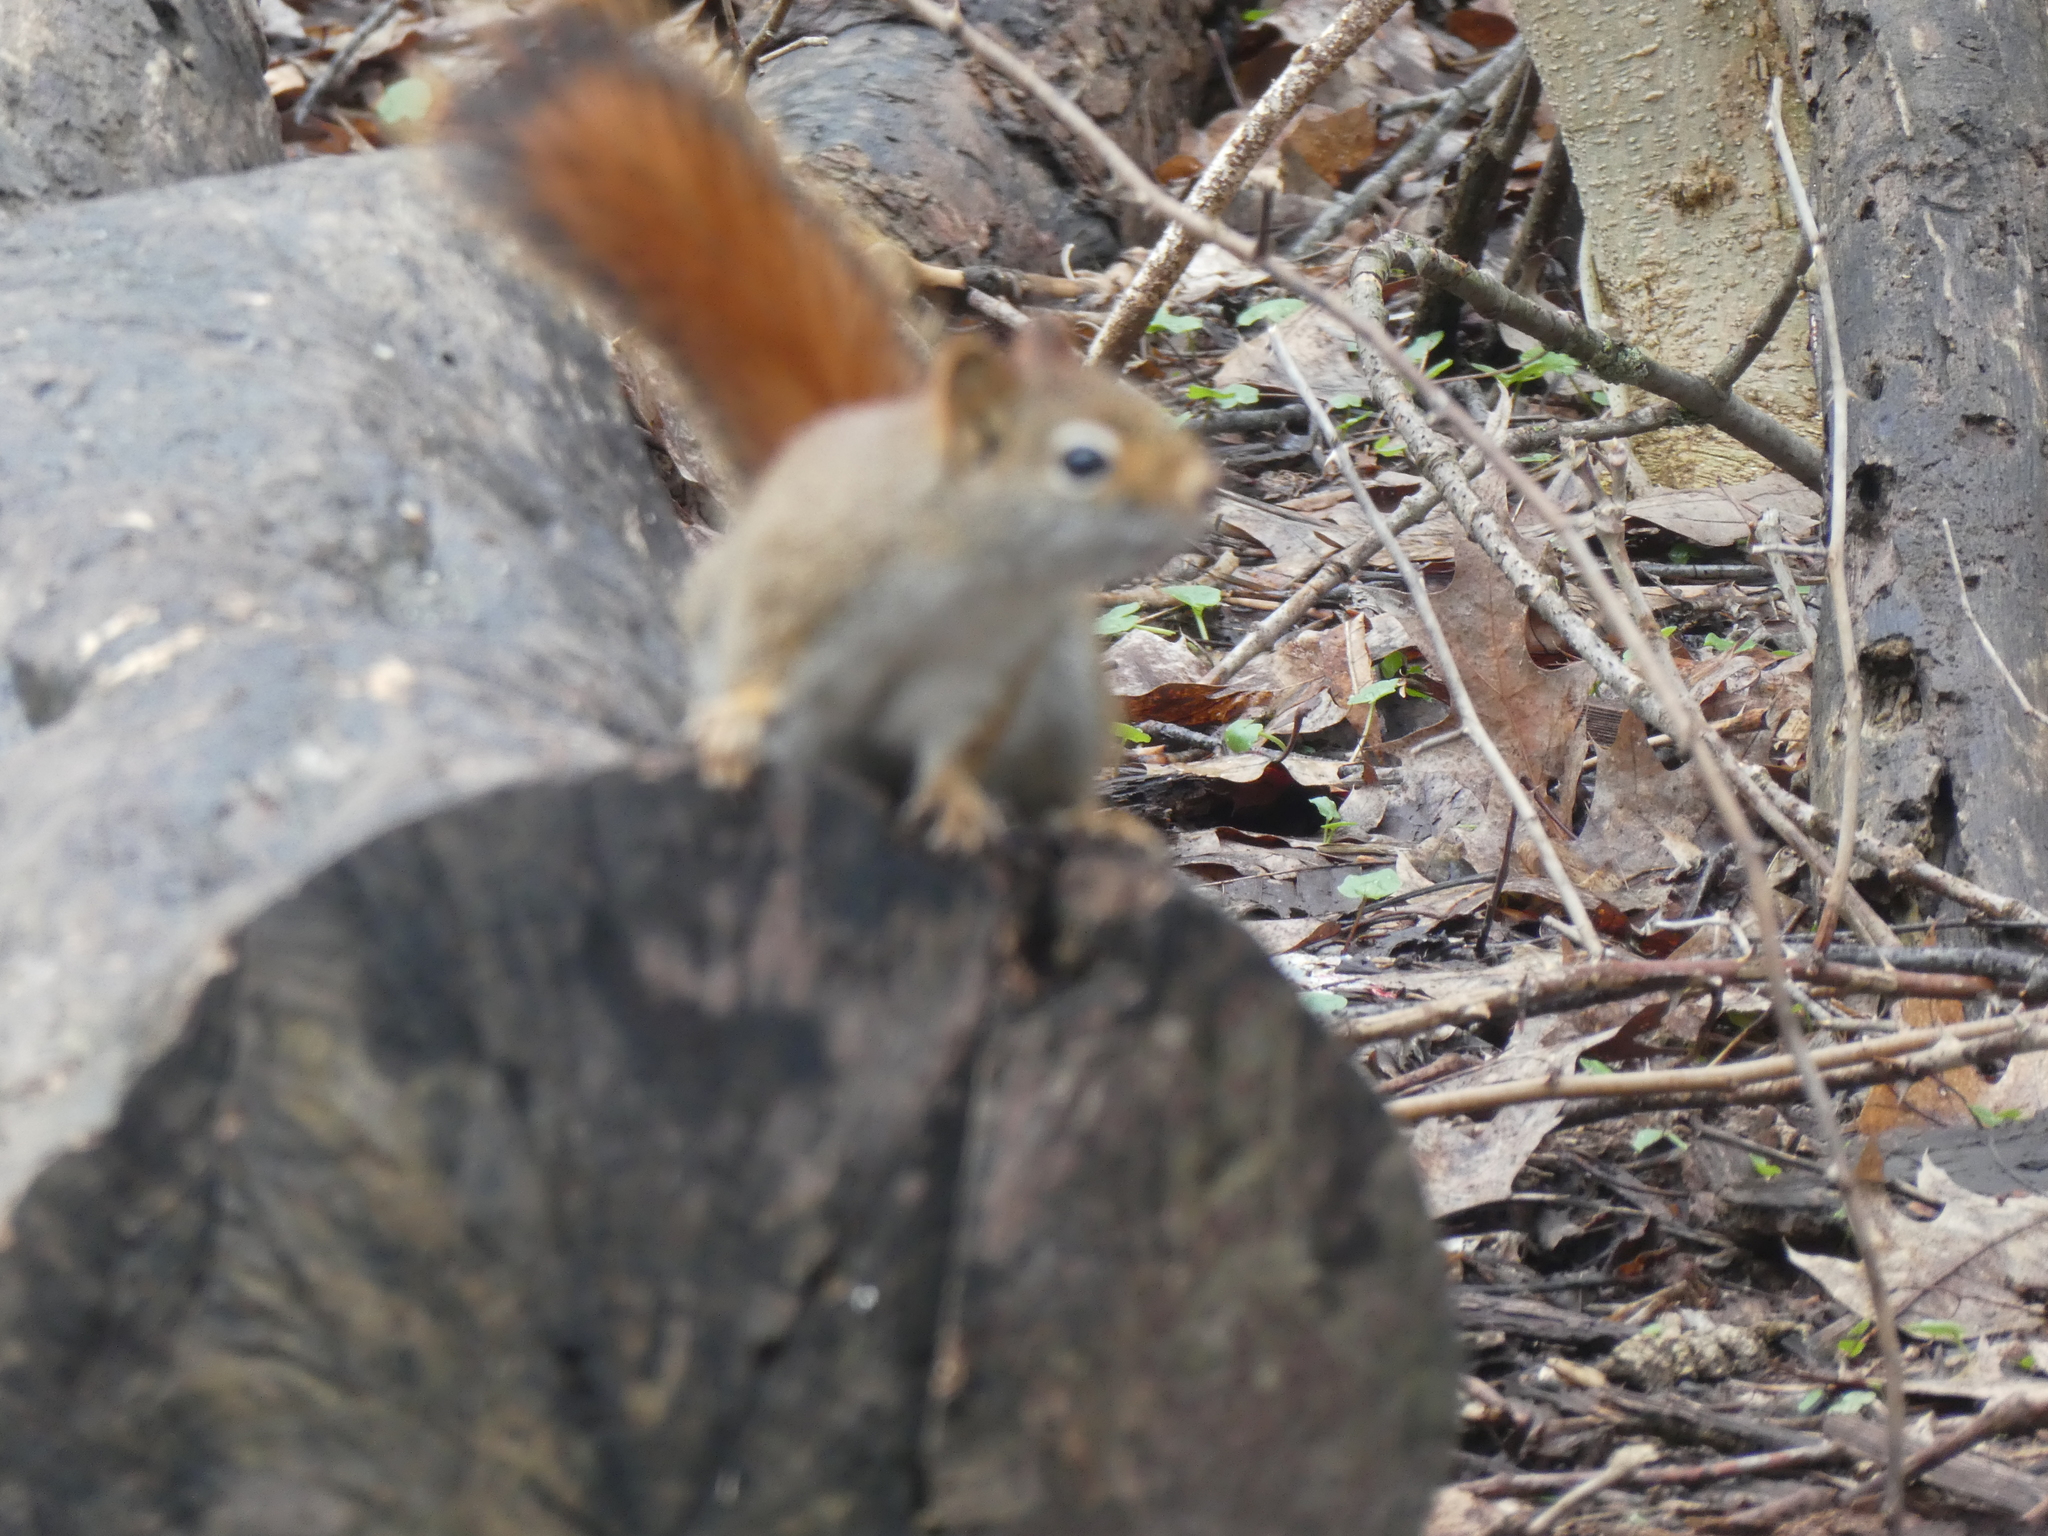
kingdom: Animalia
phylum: Chordata
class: Mammalia
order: Rodentia
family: Sciuridae
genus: Tamiasciurus
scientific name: Tamiasciurus hudsonicus
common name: Red squirrel
